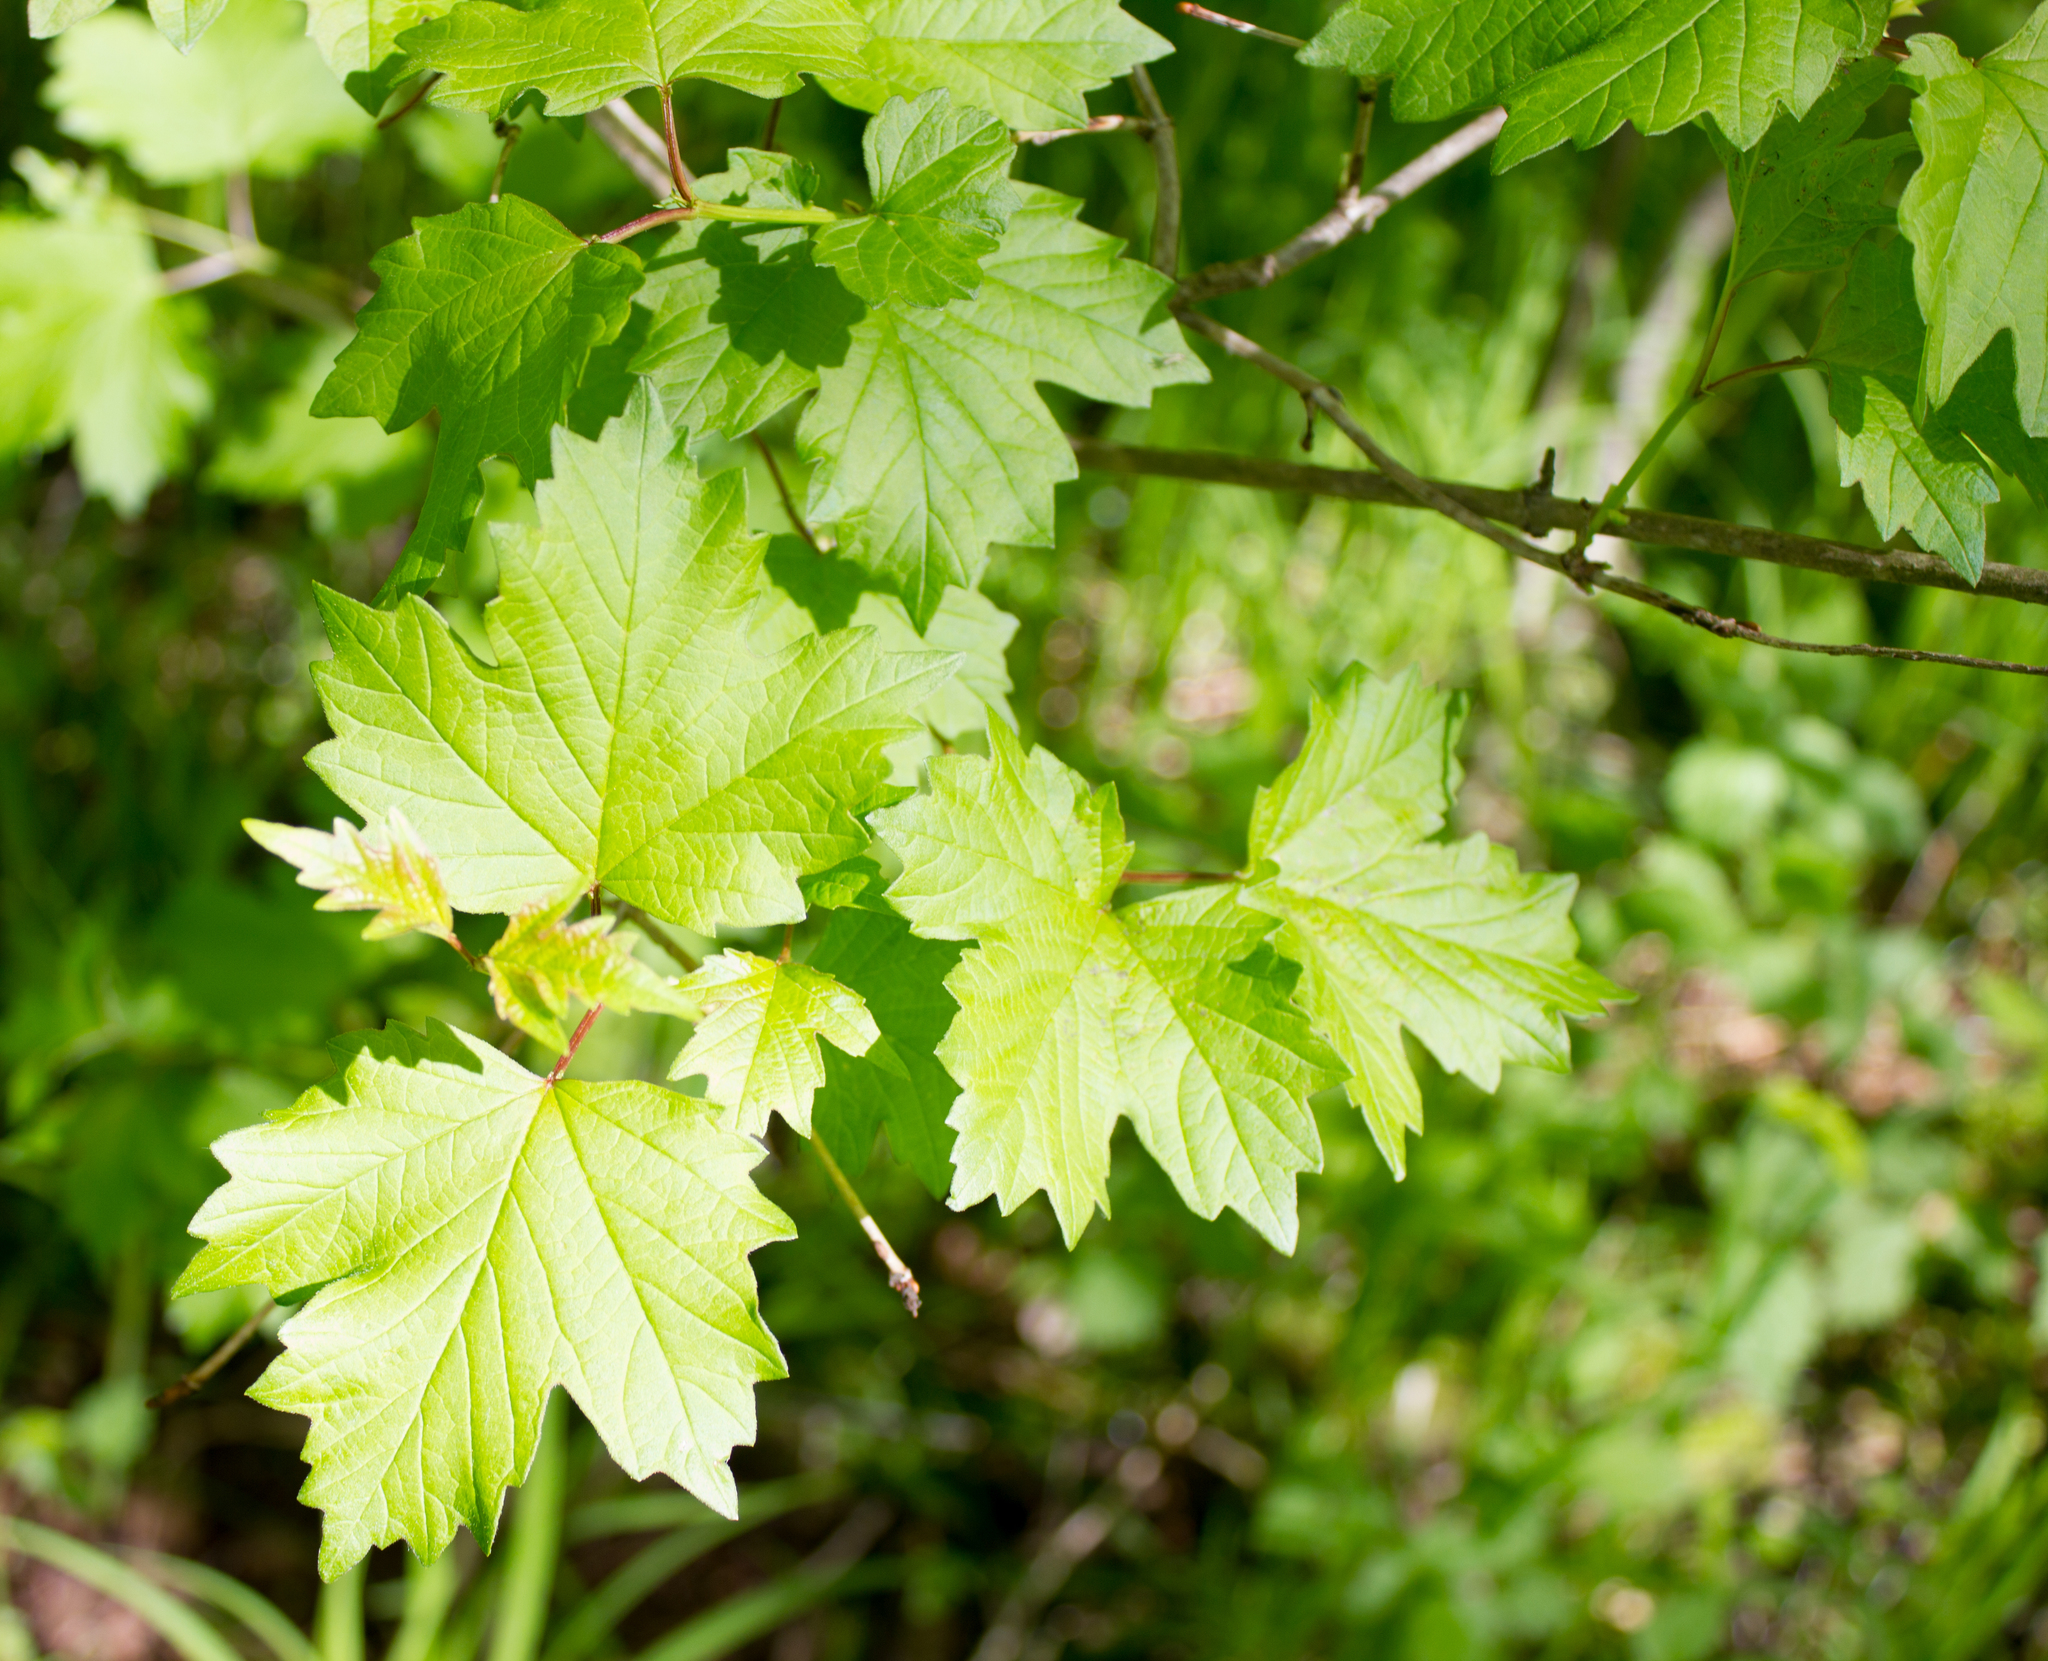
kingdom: Plantae
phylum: Tracheophyta
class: Magnoliopsida
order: Dipsacales
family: Viburnaceae
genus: Viburnum
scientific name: Viburnum opulus
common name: Guelder-rose
